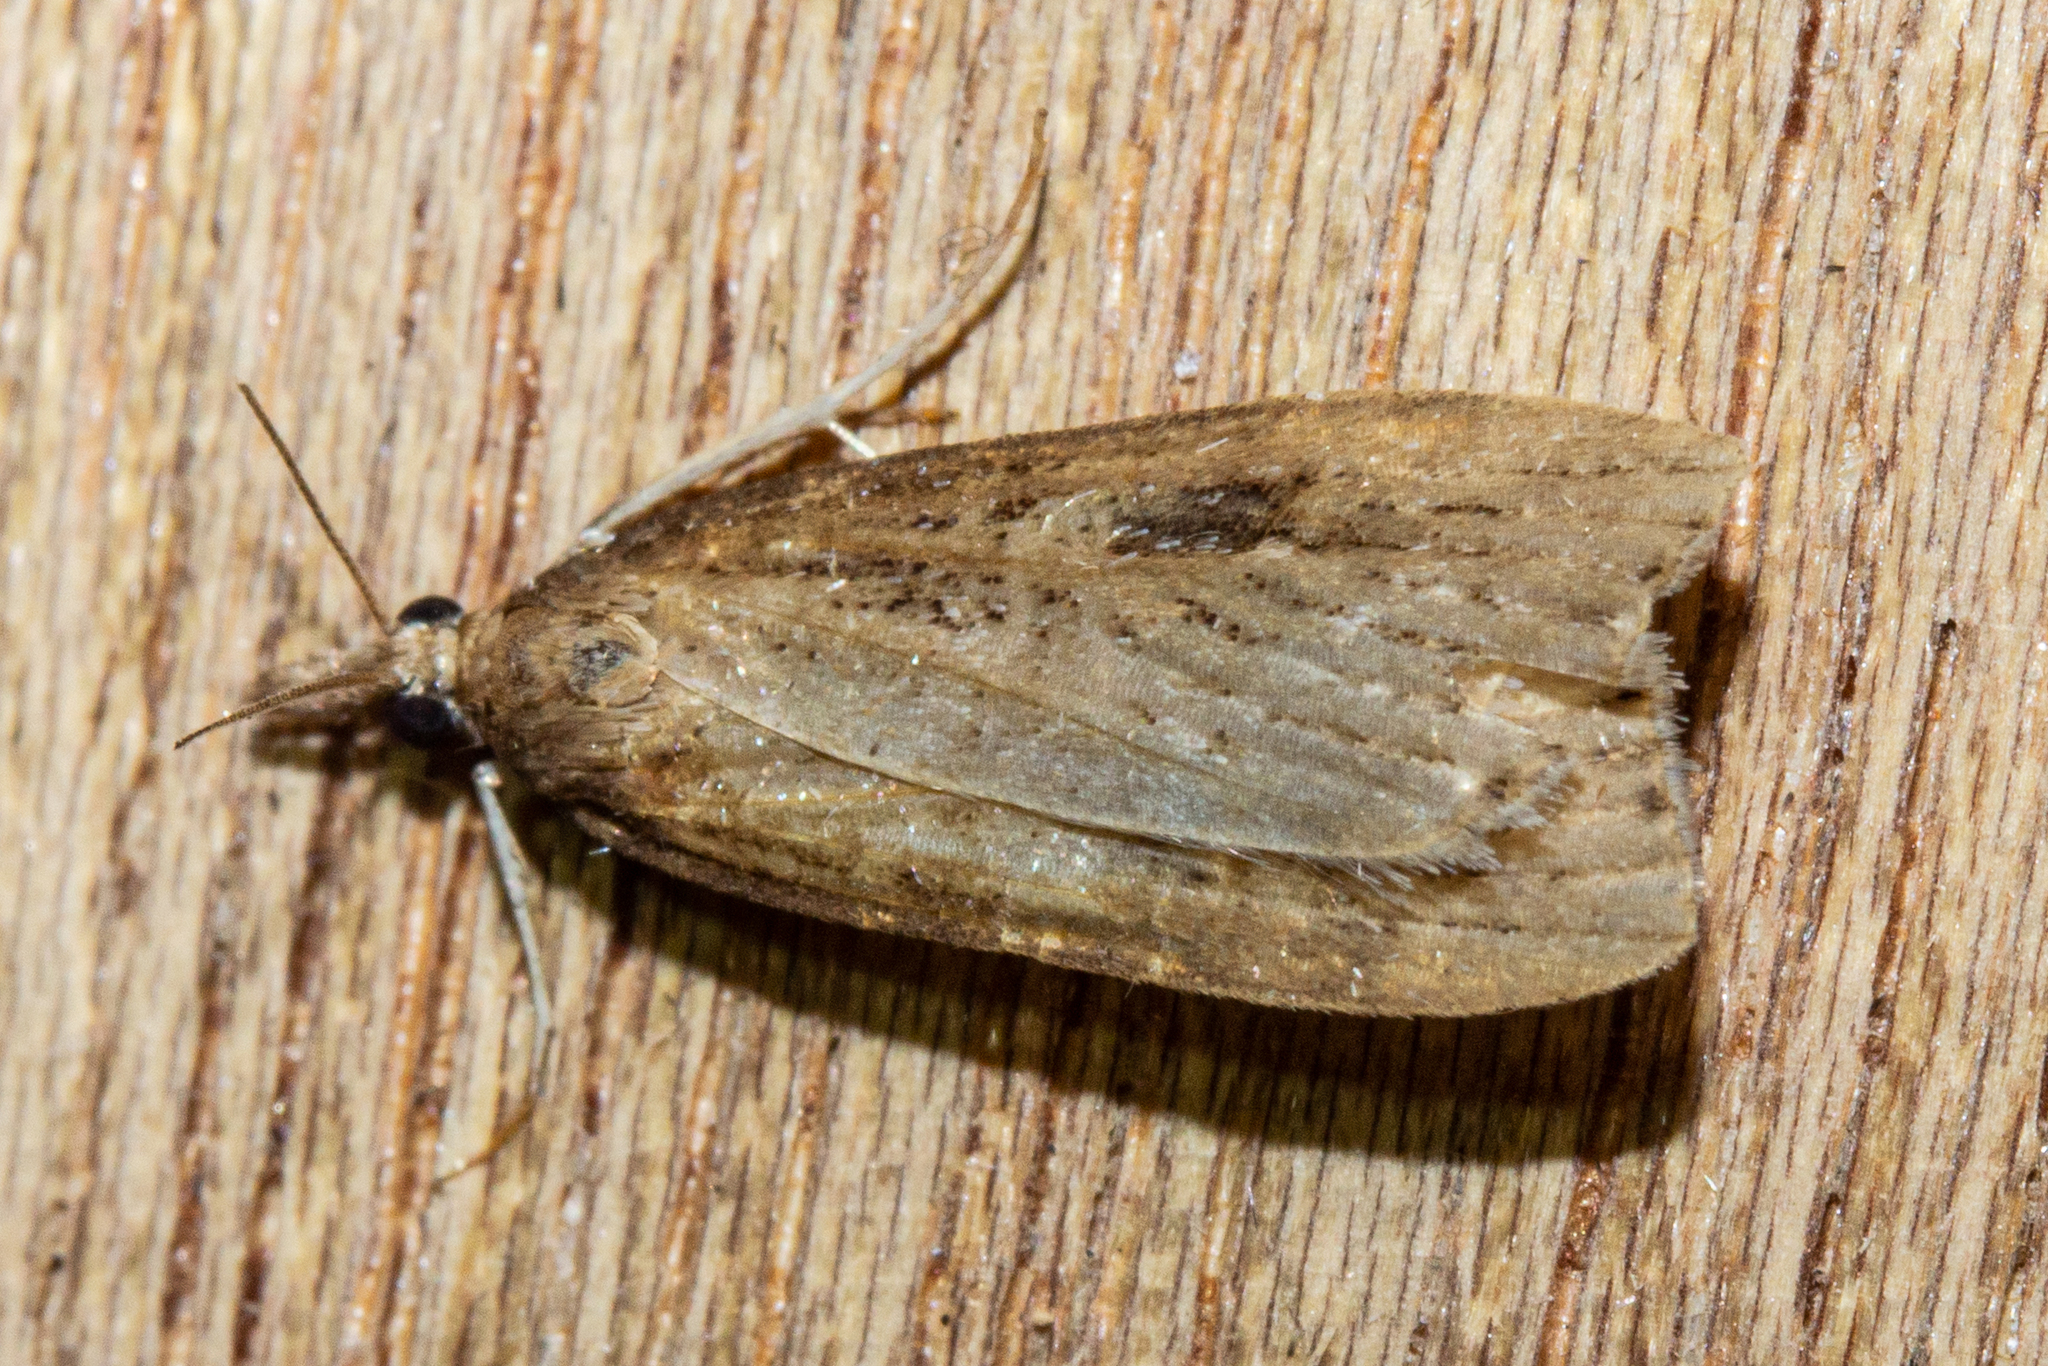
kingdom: Animalia
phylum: Arthropoda
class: Insecta
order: Lepidoptera
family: Crambidae
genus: Eudonia
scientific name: Eudonia octophora
